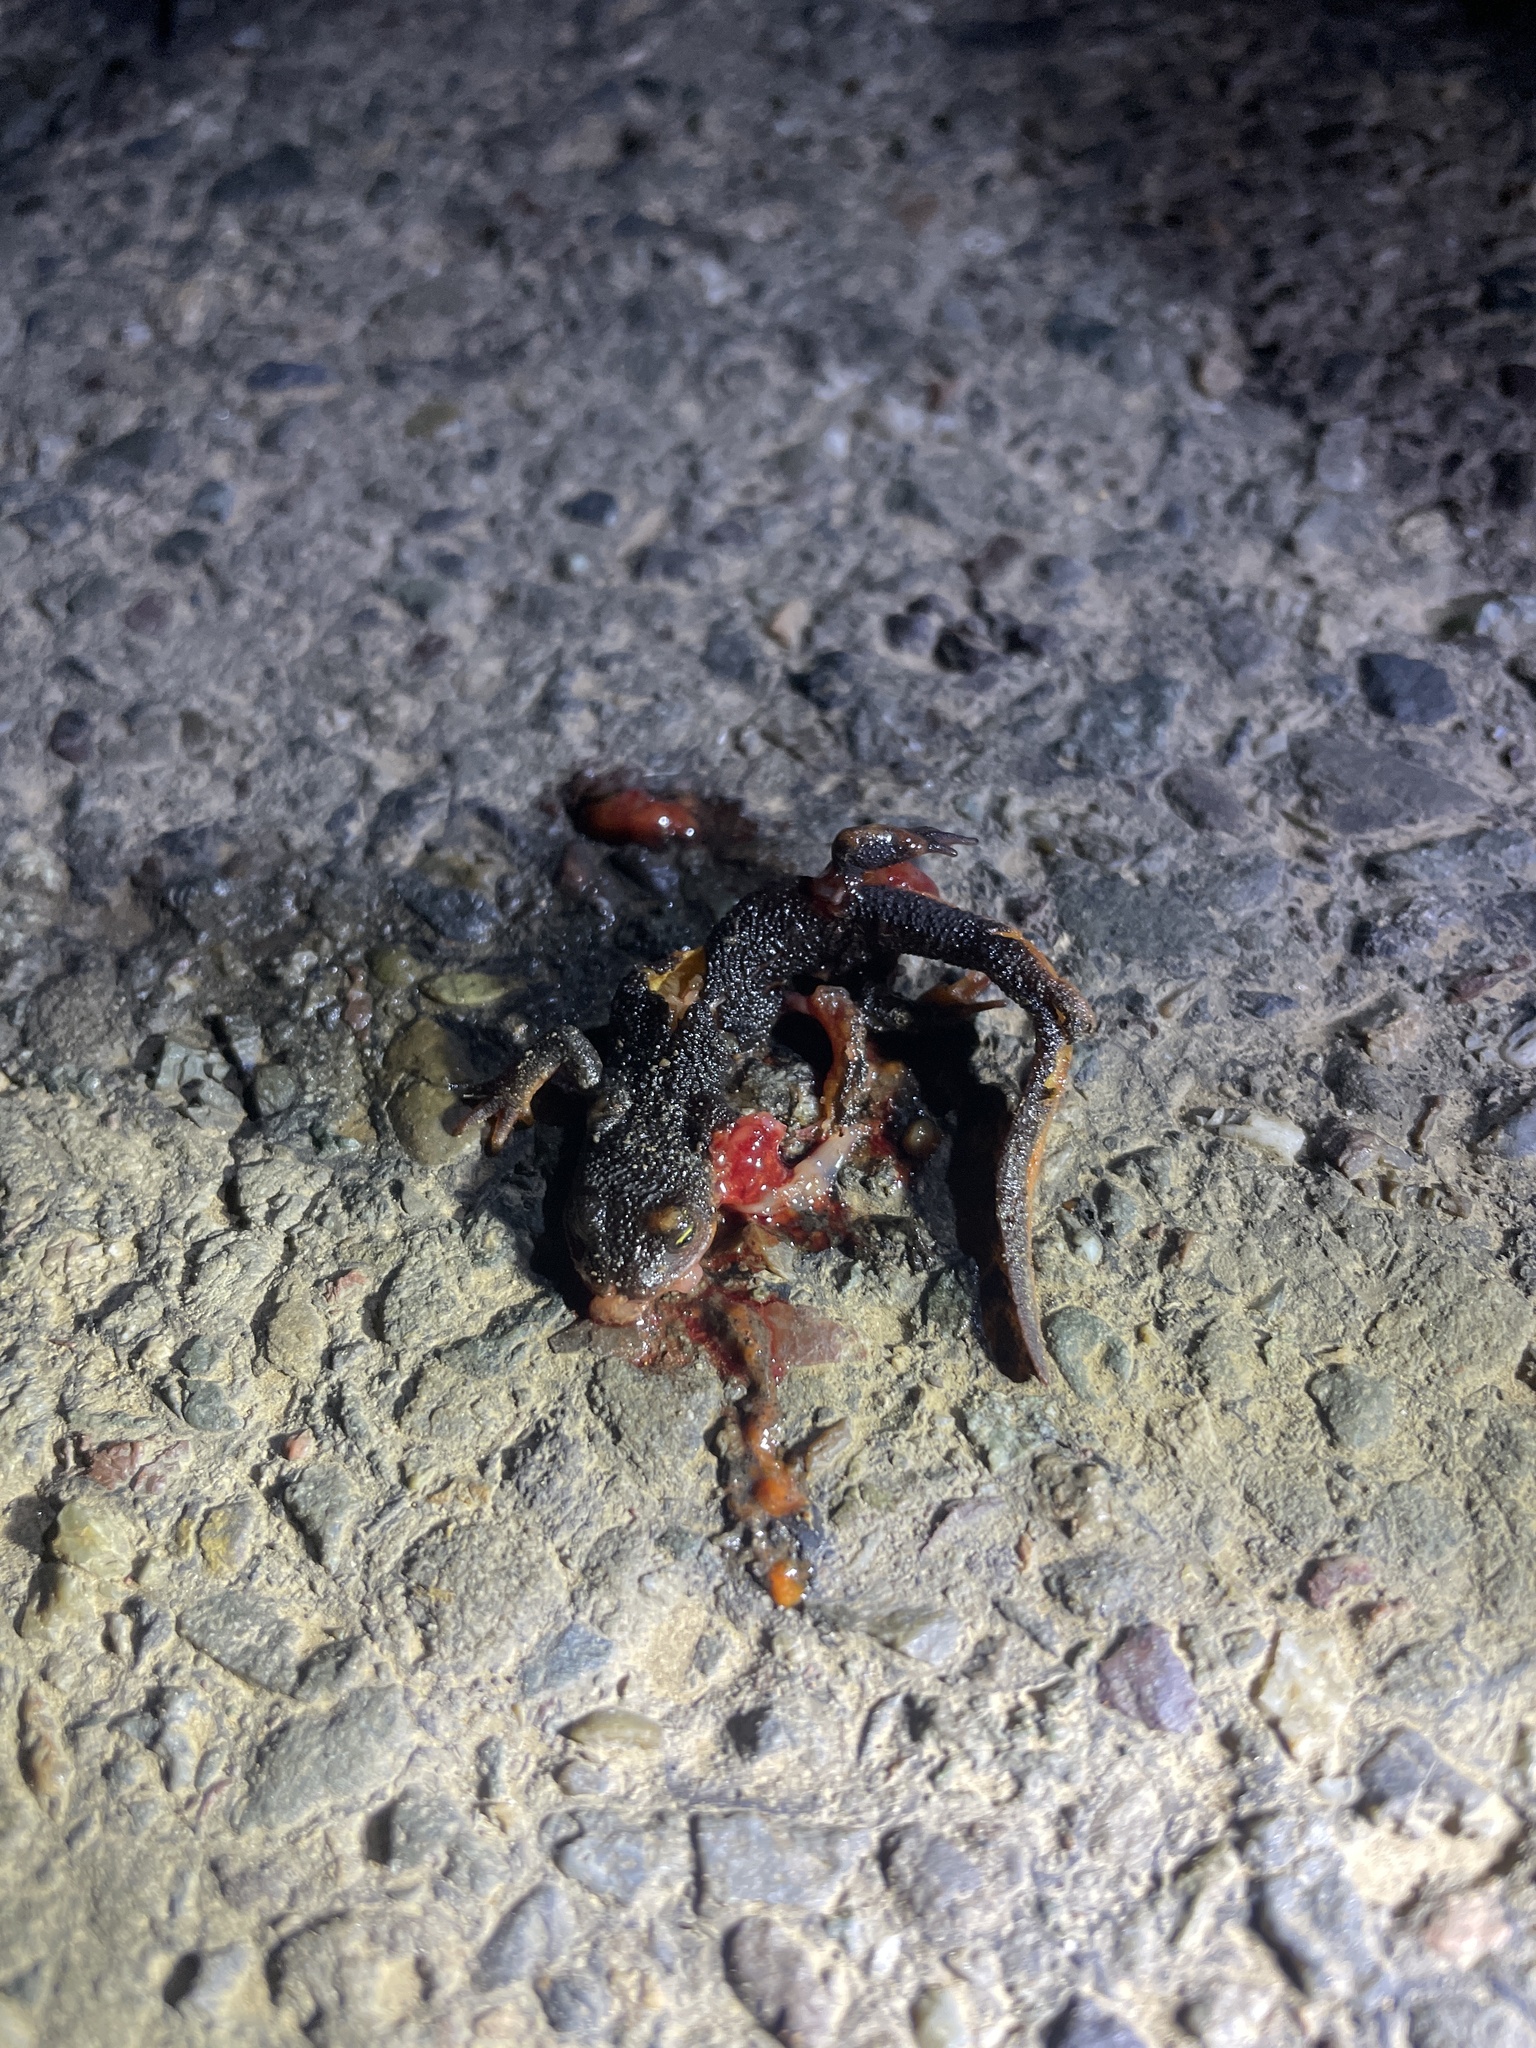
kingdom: Animalia
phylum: Chordata
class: Amphibia
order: Caudata
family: Salamandridae
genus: Taricha
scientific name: Taricha
